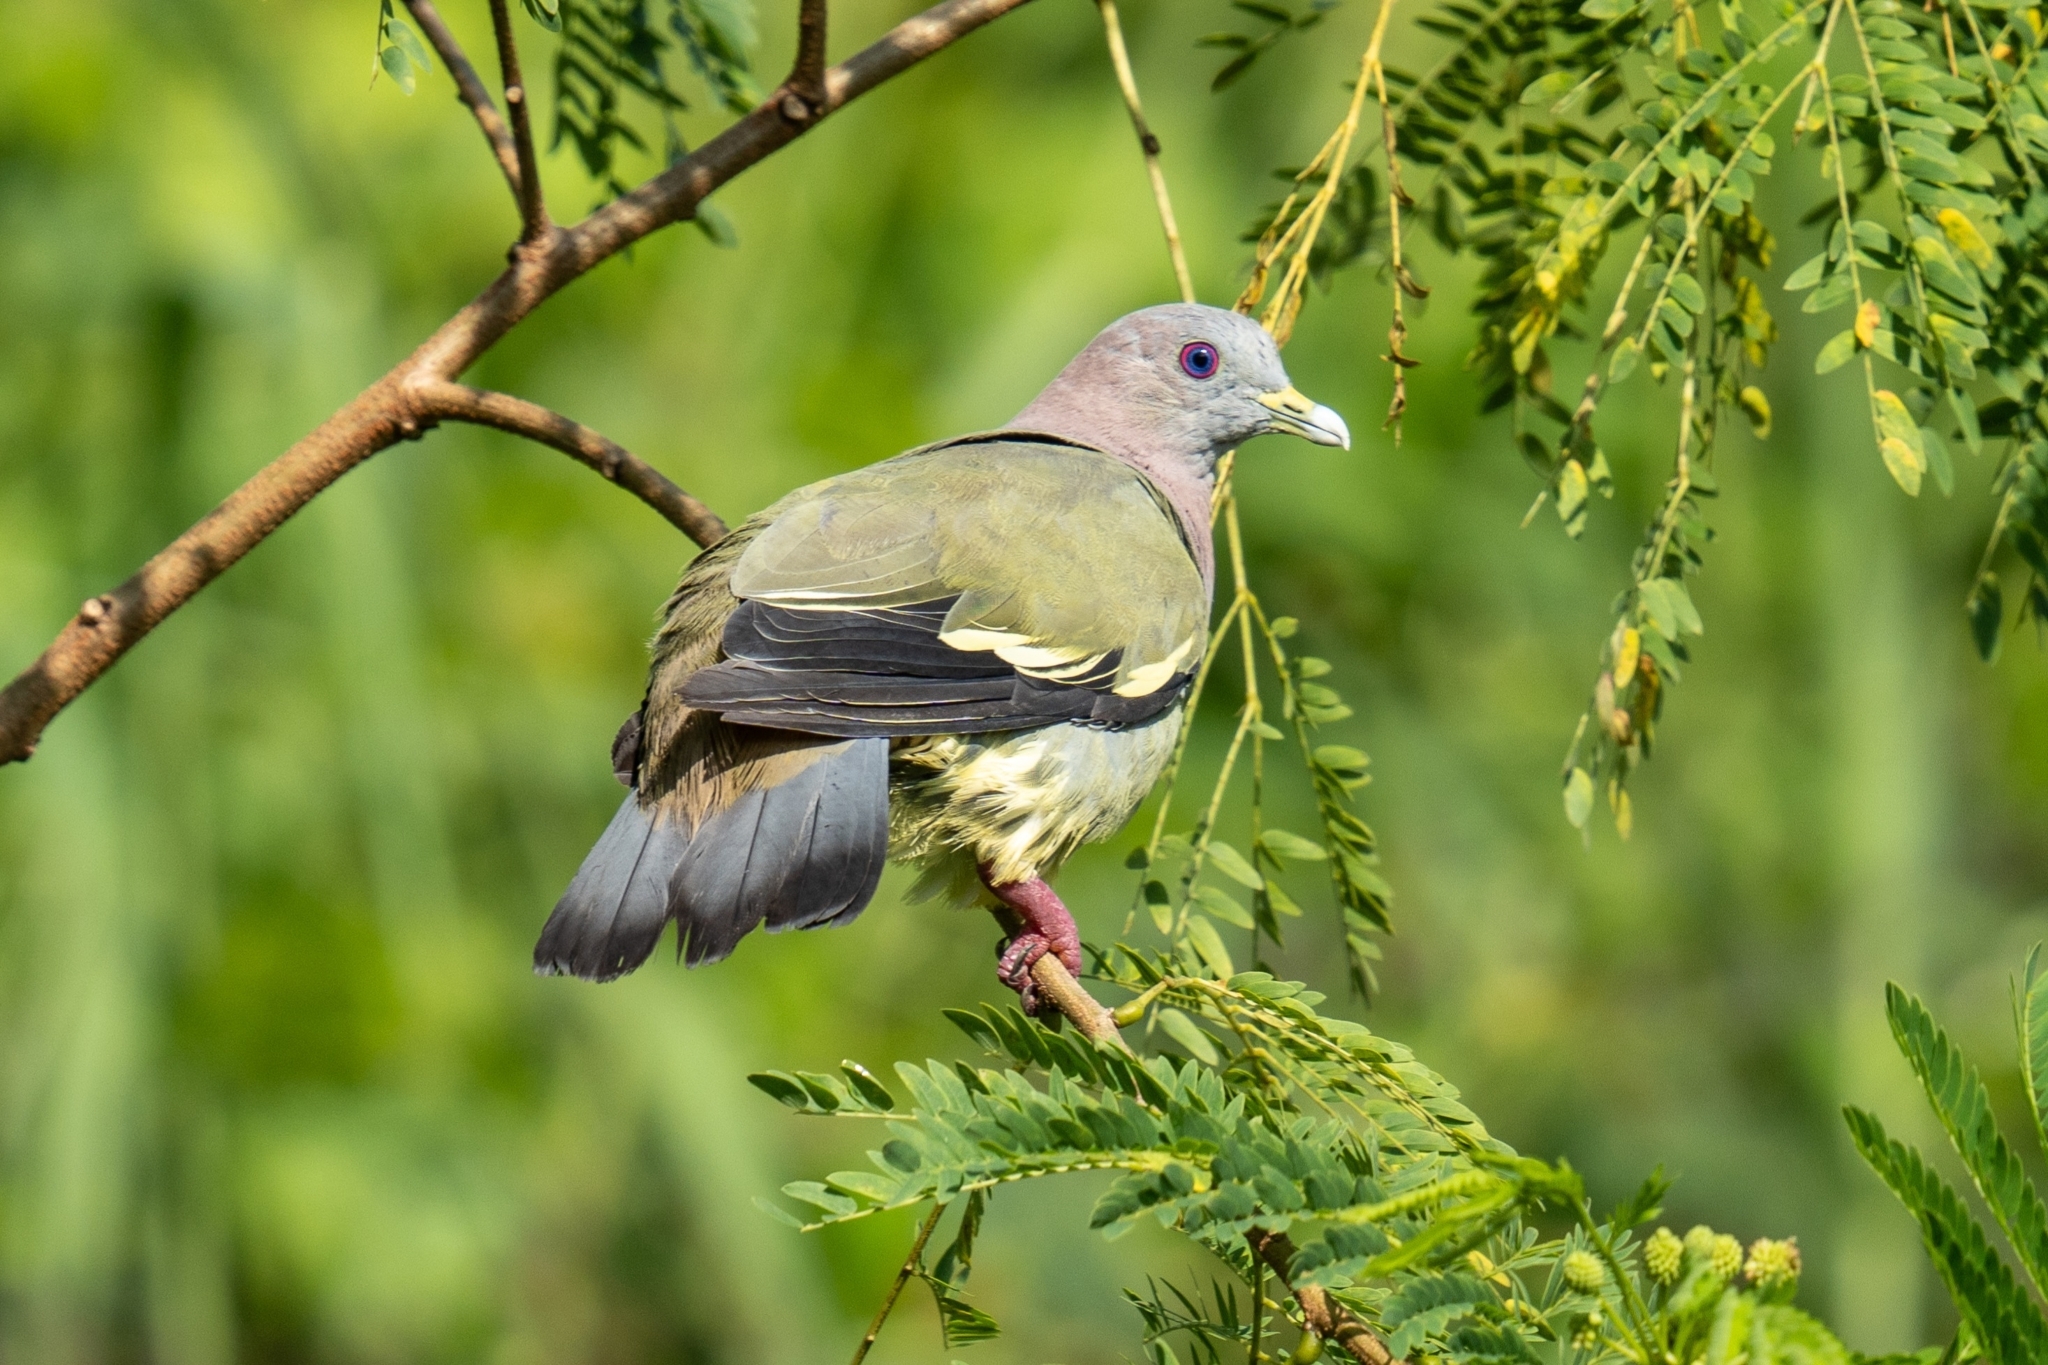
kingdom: Animalia
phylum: Chordata
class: Aves
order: Columbiformes
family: Columbidae
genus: Treron
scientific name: Treron vernans
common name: Pink-necked green pigeon
